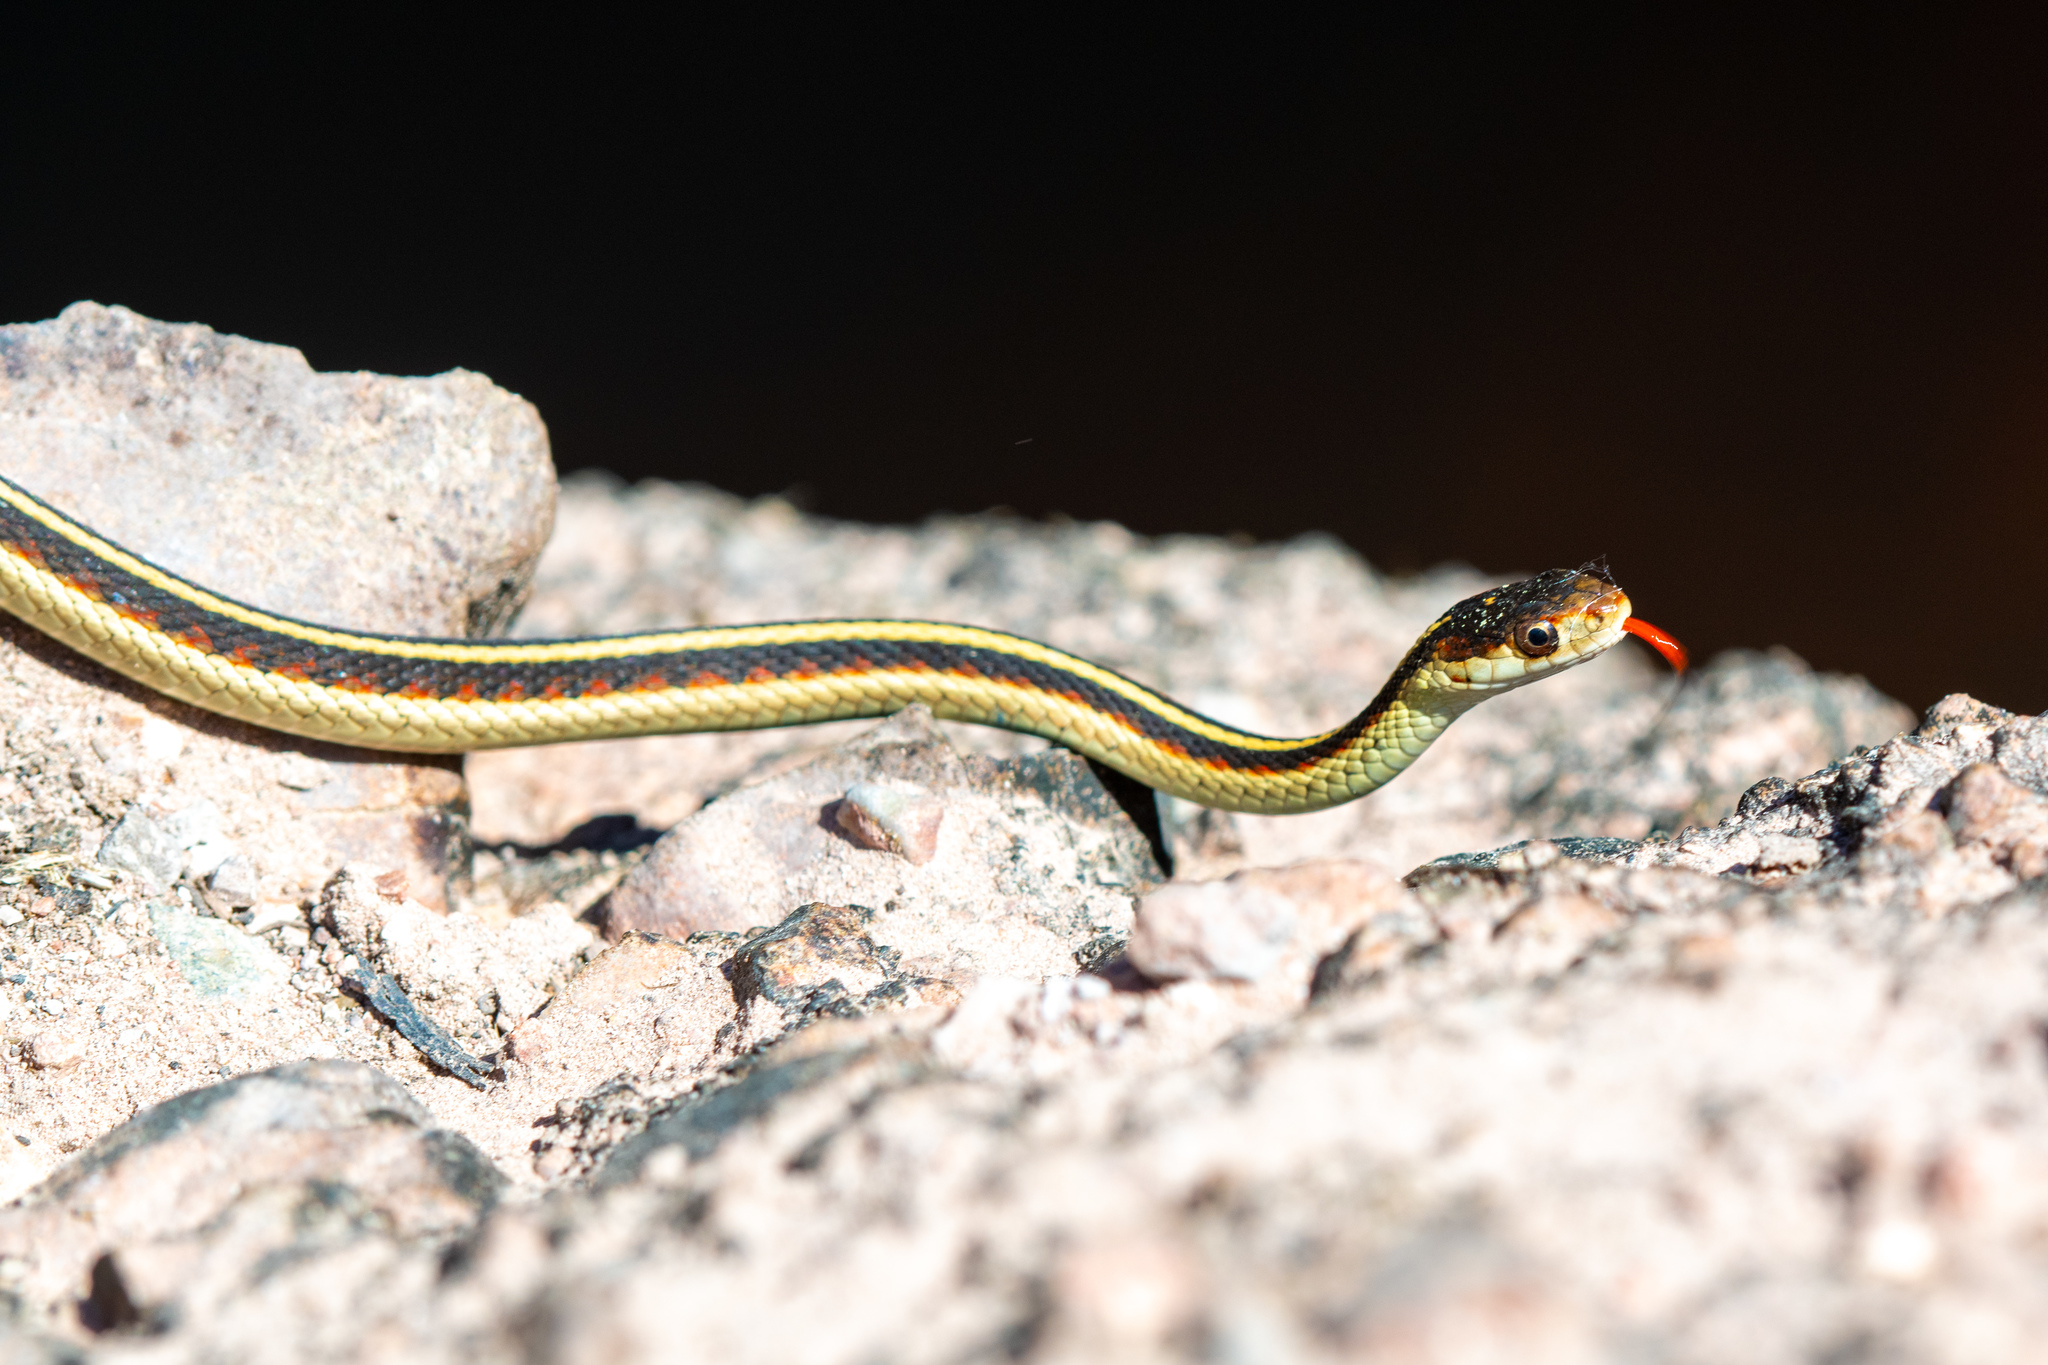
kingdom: Animalia
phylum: Chordata
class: Squamata
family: Colubridae
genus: Thamnophis
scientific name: Thamnophis sirtalis
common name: Common garter snake
